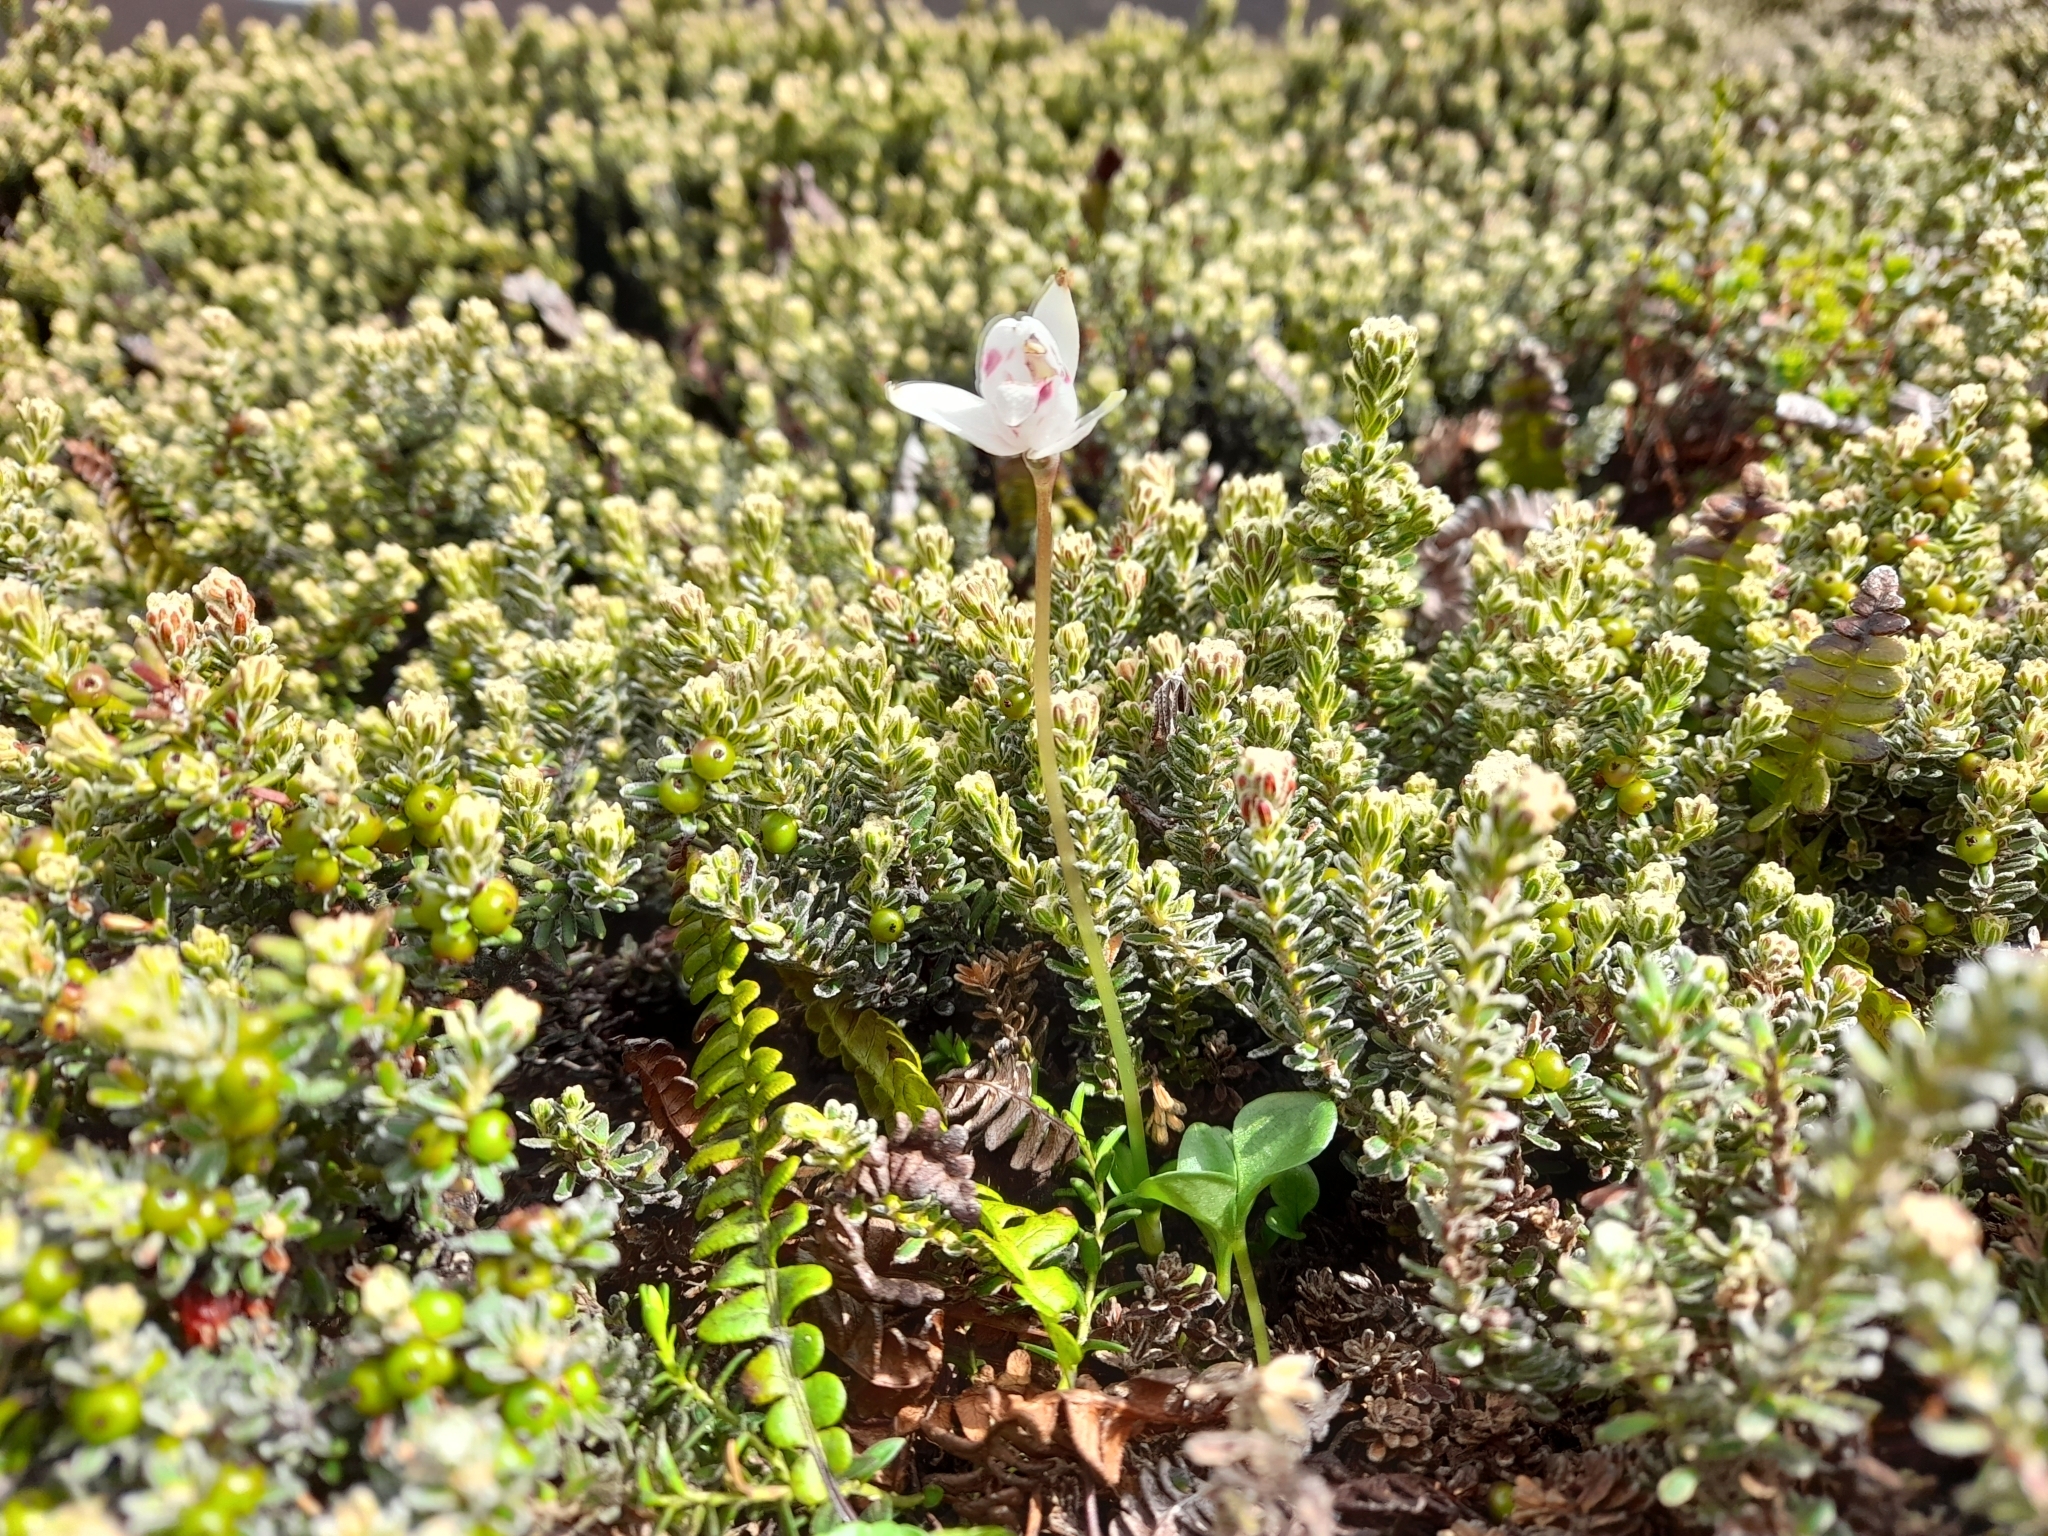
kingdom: Plantae
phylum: Tracheophyta
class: Liliopsida
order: Asparagales
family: Orchidaceae
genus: Codonorchis
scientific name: Codonorchis lessonii
